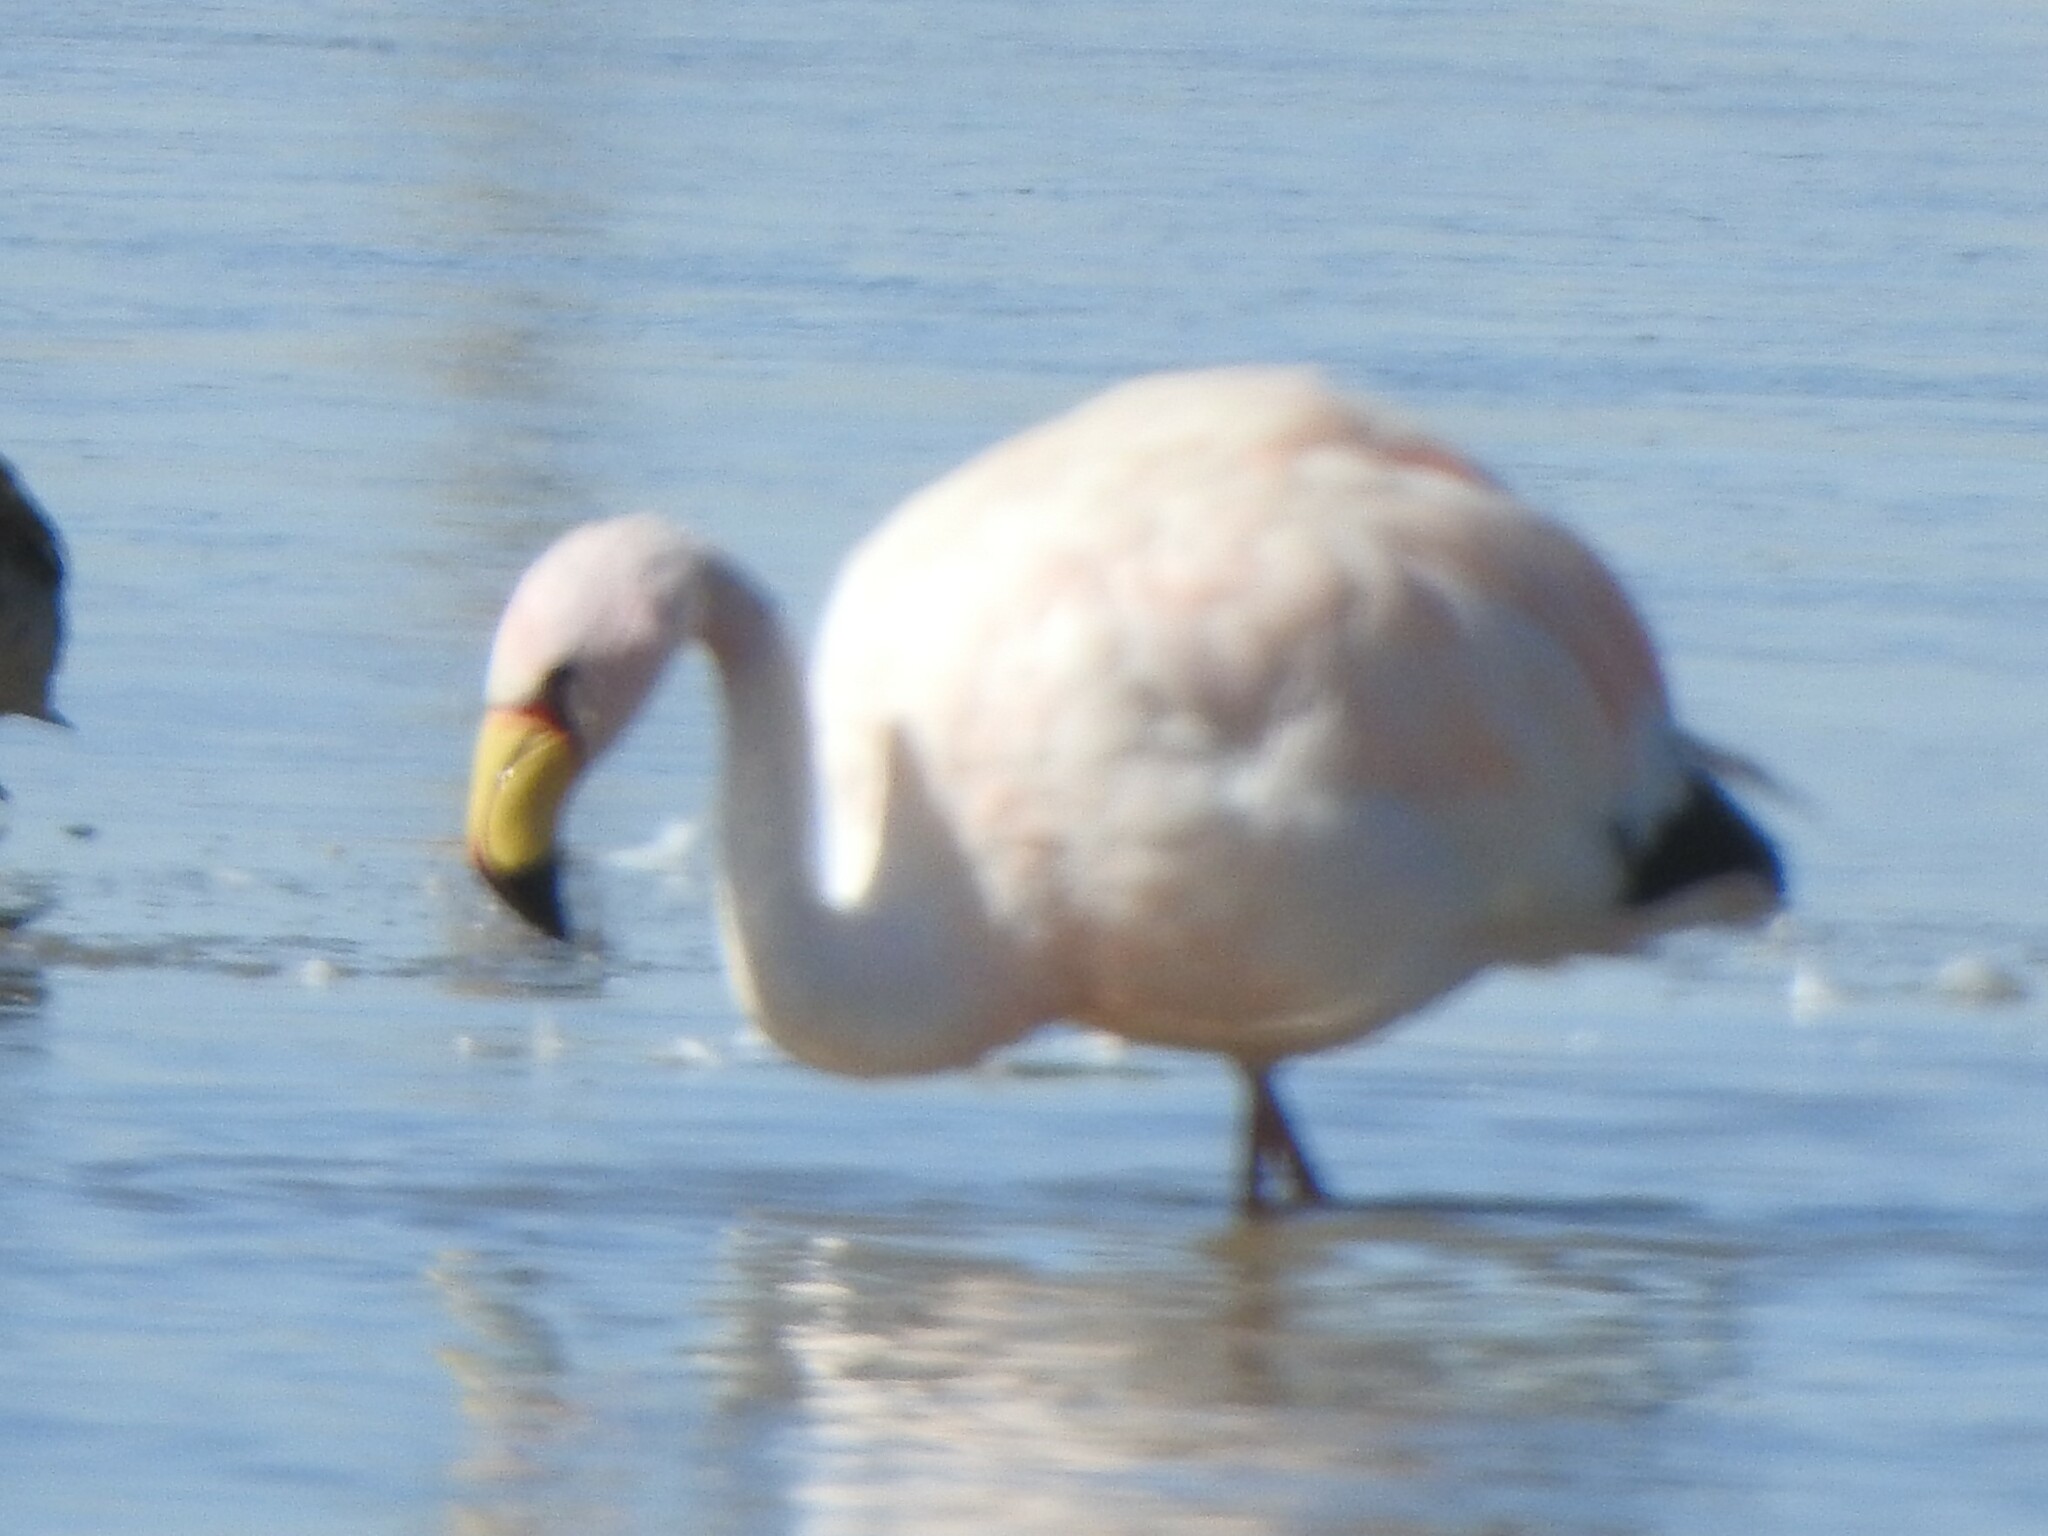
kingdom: Animalia
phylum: Chordata
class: Aves
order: Phoenicopteriformes
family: Phoenicopteridae
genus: Phoenicoparrus
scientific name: Phoenicoparrus jamesi
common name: James's flamingo
